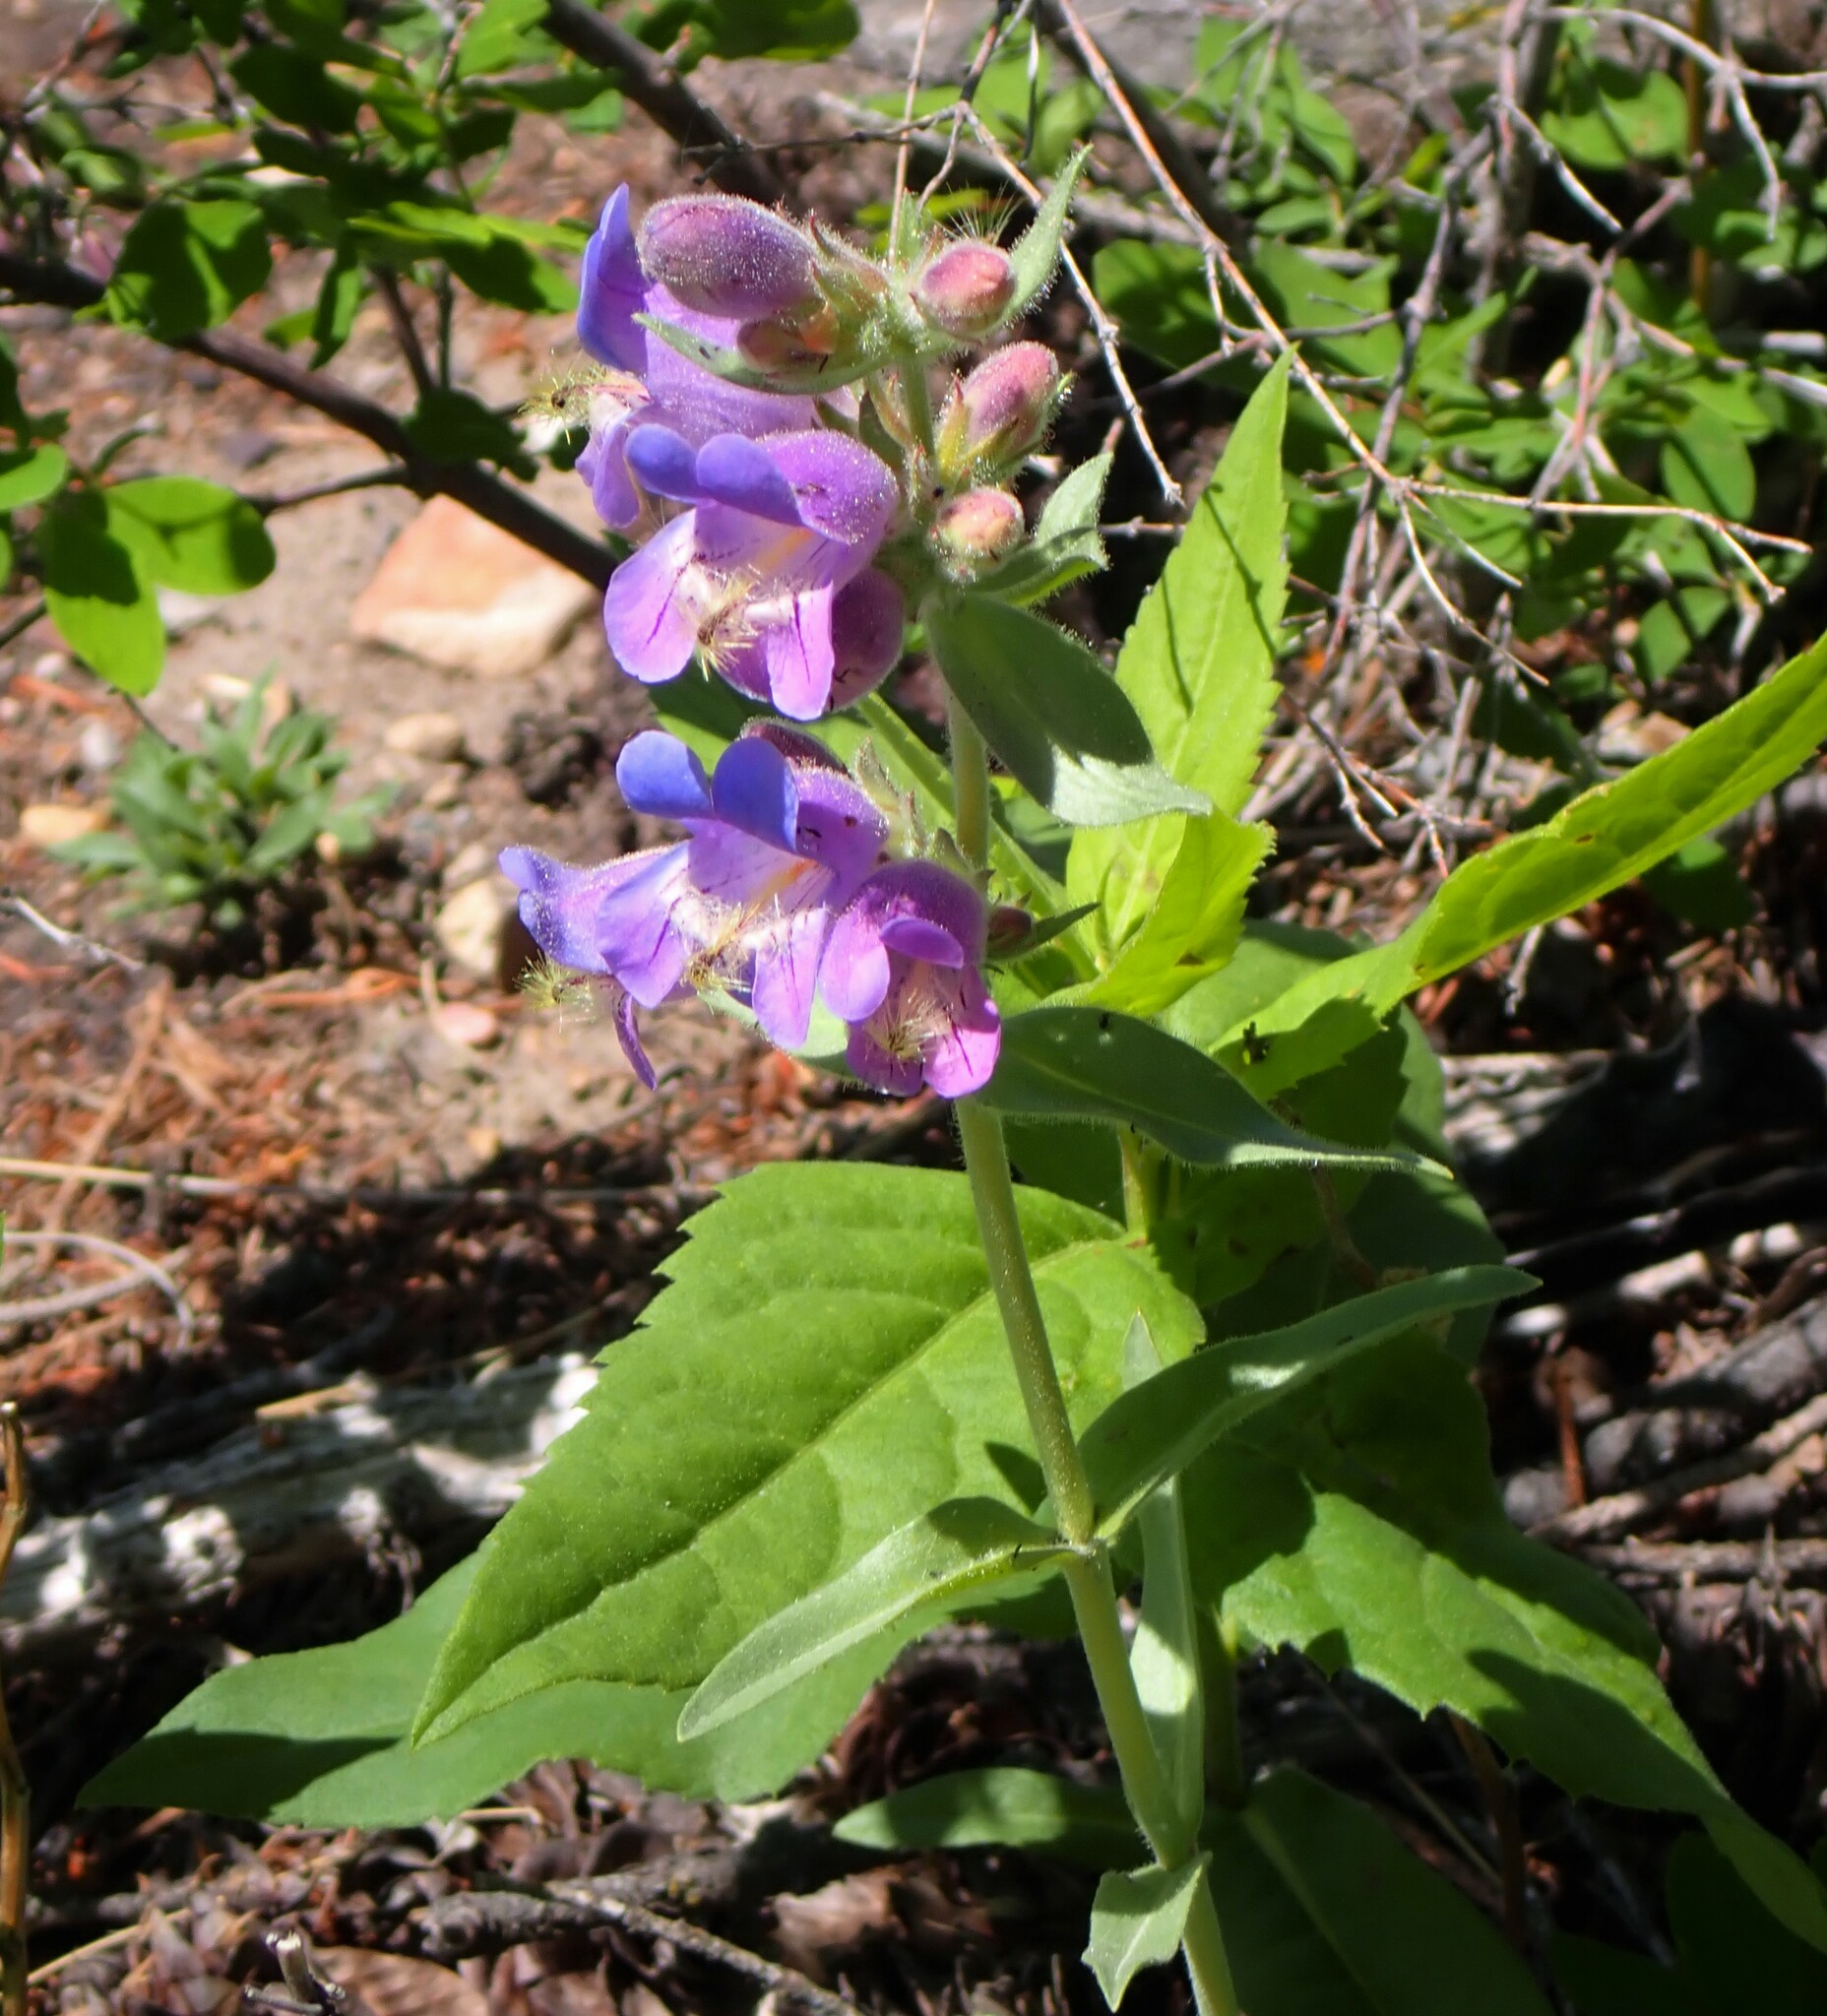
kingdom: Plantae
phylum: Tracheophyta
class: Magnoliopsida
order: Lamiales
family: Plantaginaceae
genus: Penstemon
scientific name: Penstemon eriantherus
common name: Crested beardtongue
